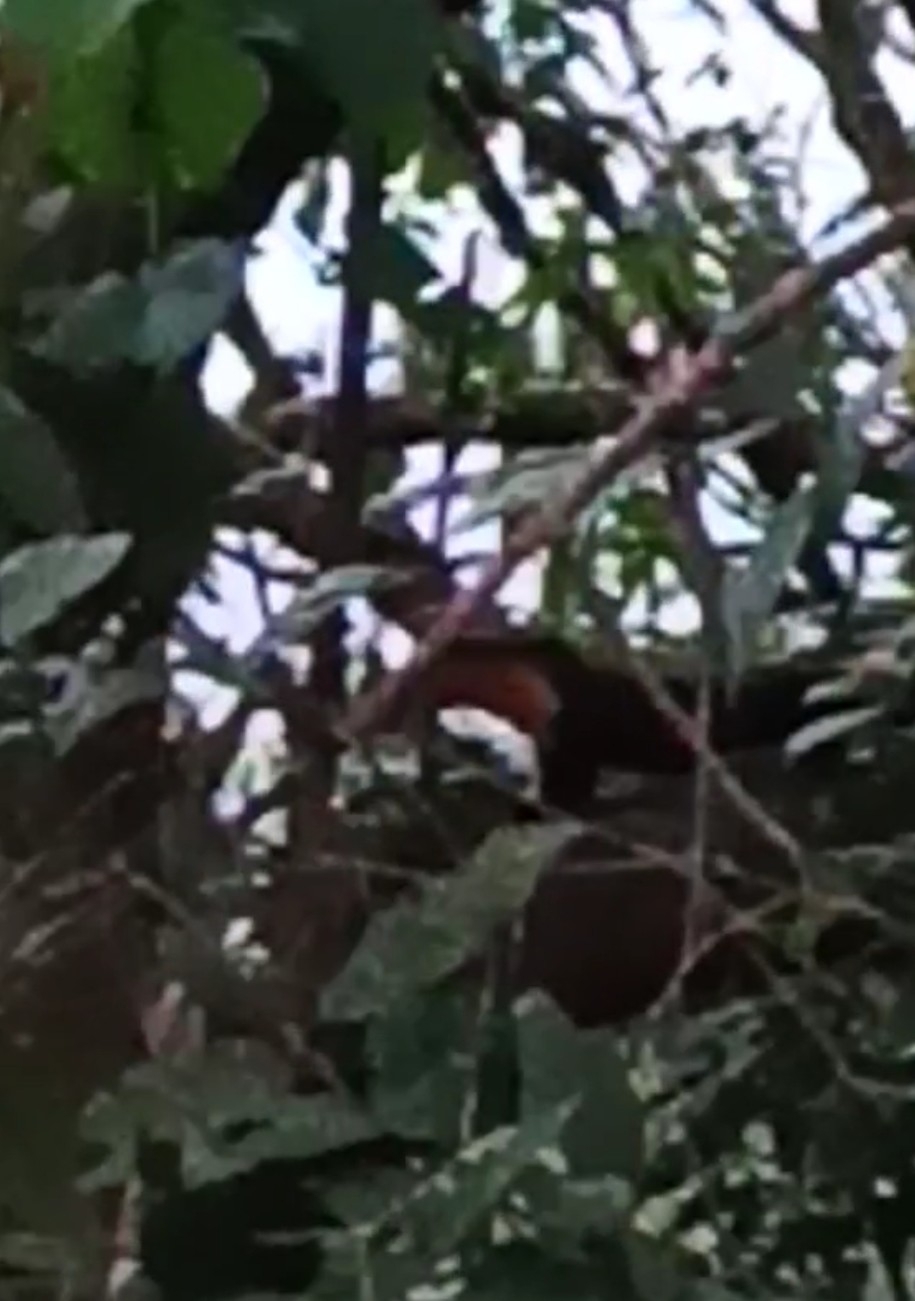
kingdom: Animalia
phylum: Chordata
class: Mammalia
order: Carnivora
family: Mustelidae
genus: Martes
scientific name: Martes gwatkinsii
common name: Nilgiri marten
